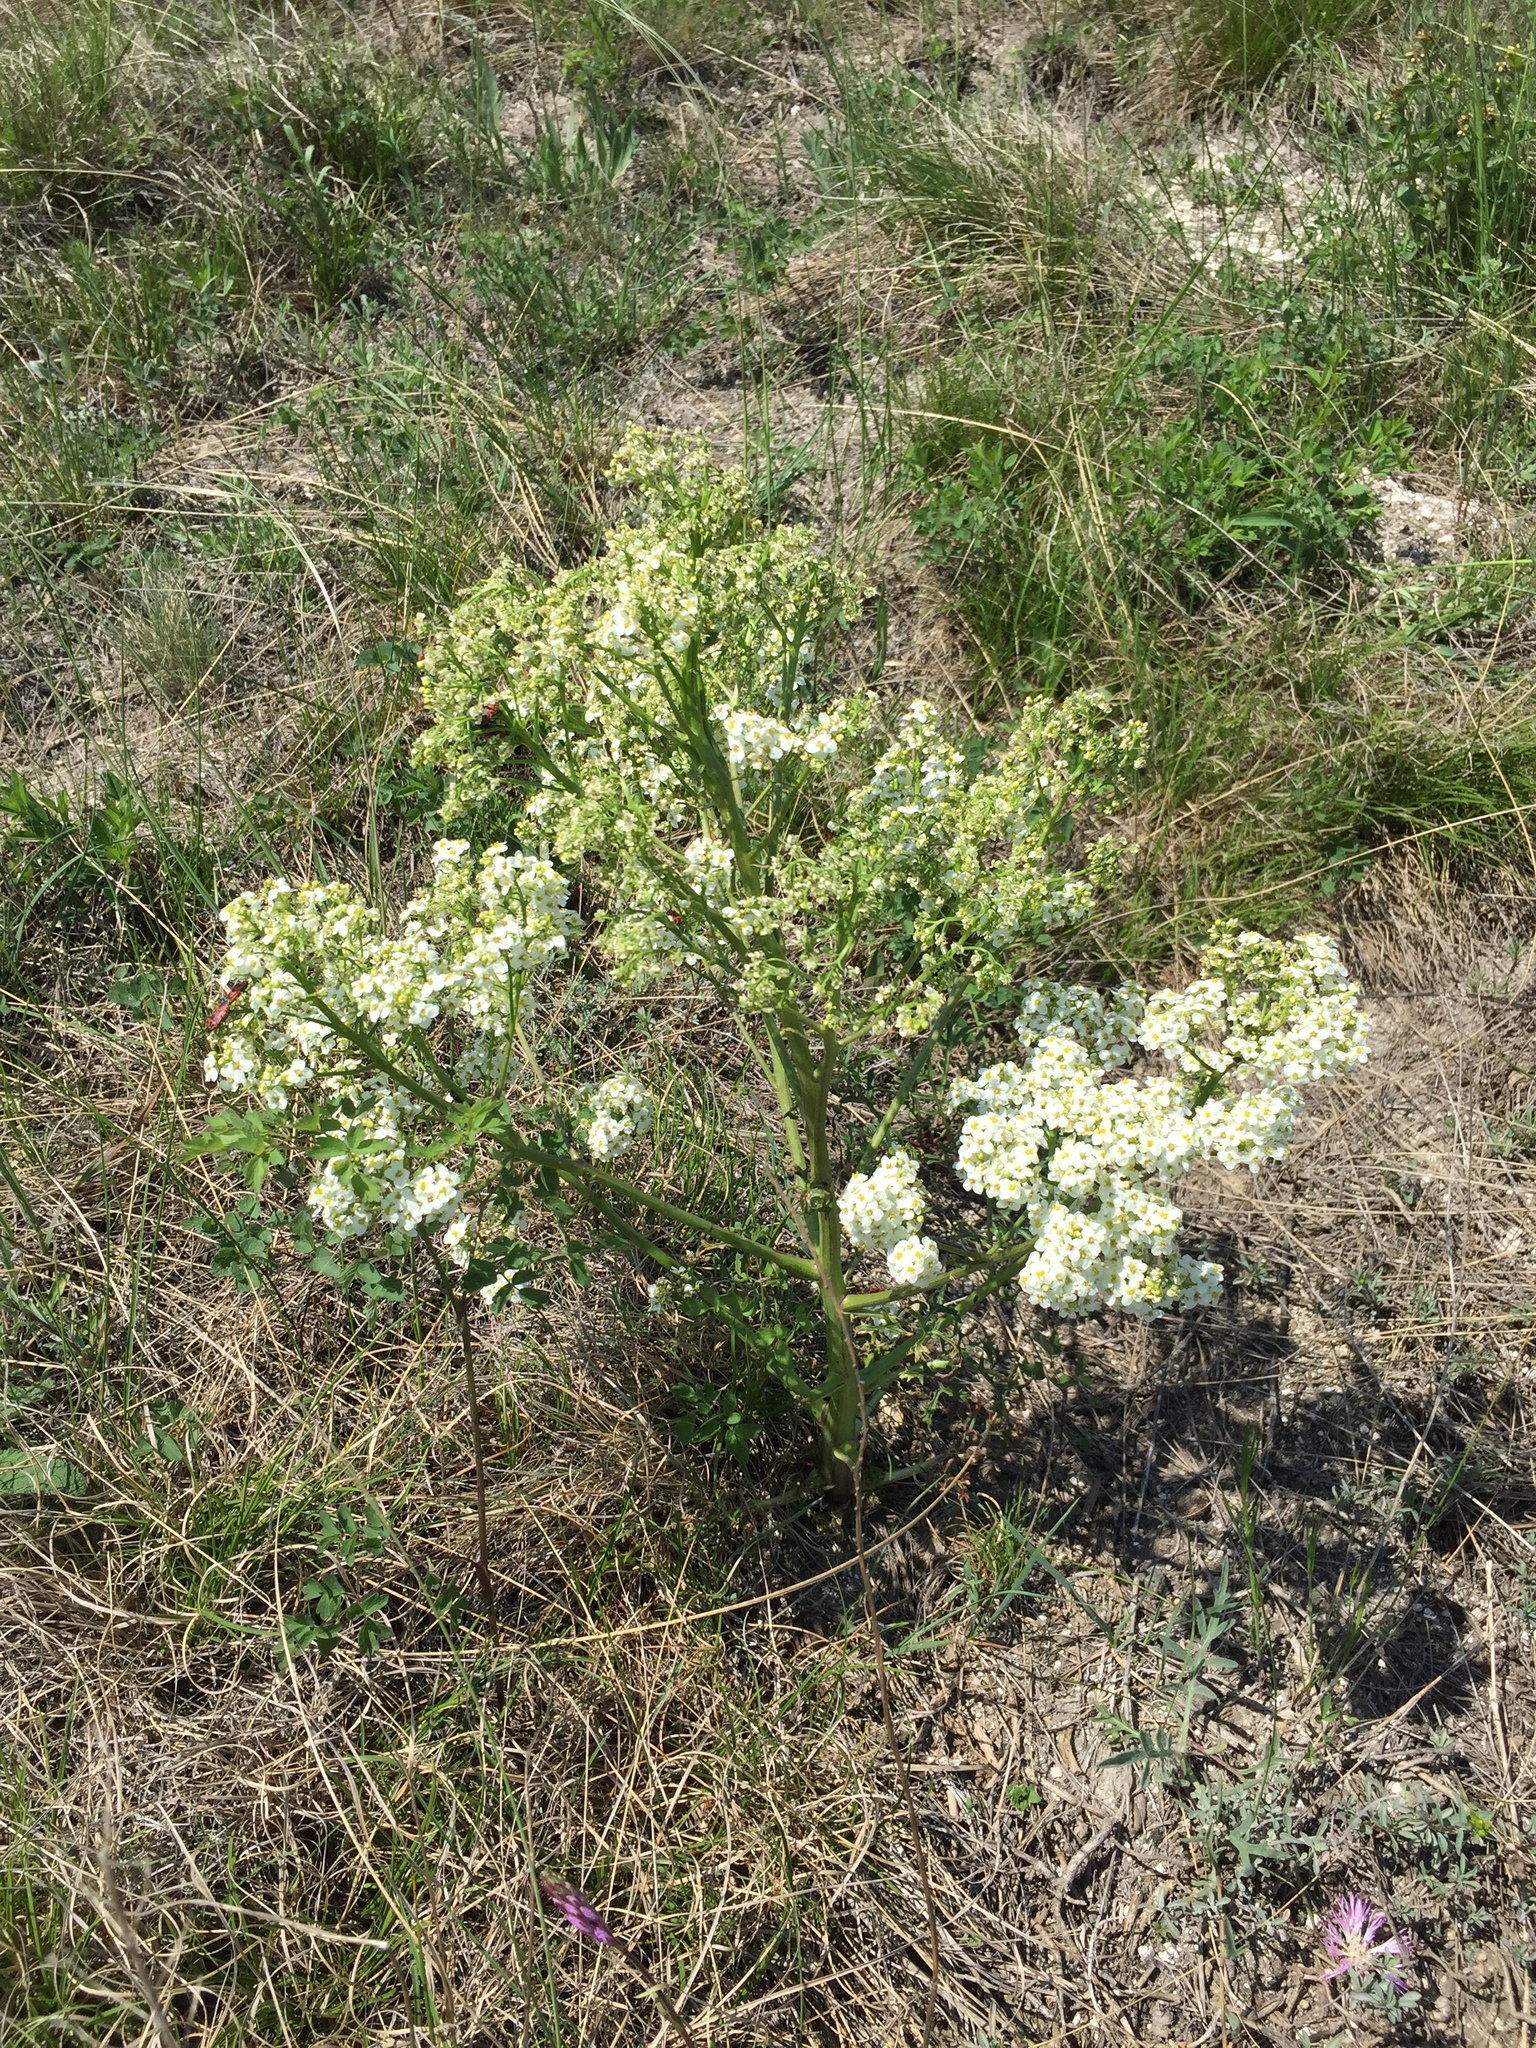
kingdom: Plantae
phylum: Tracheophyta
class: Magnoliopsida
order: Brassicales
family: Brassicaceae
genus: Crambe
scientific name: Crambe tataria
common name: Tartarian breadplant
